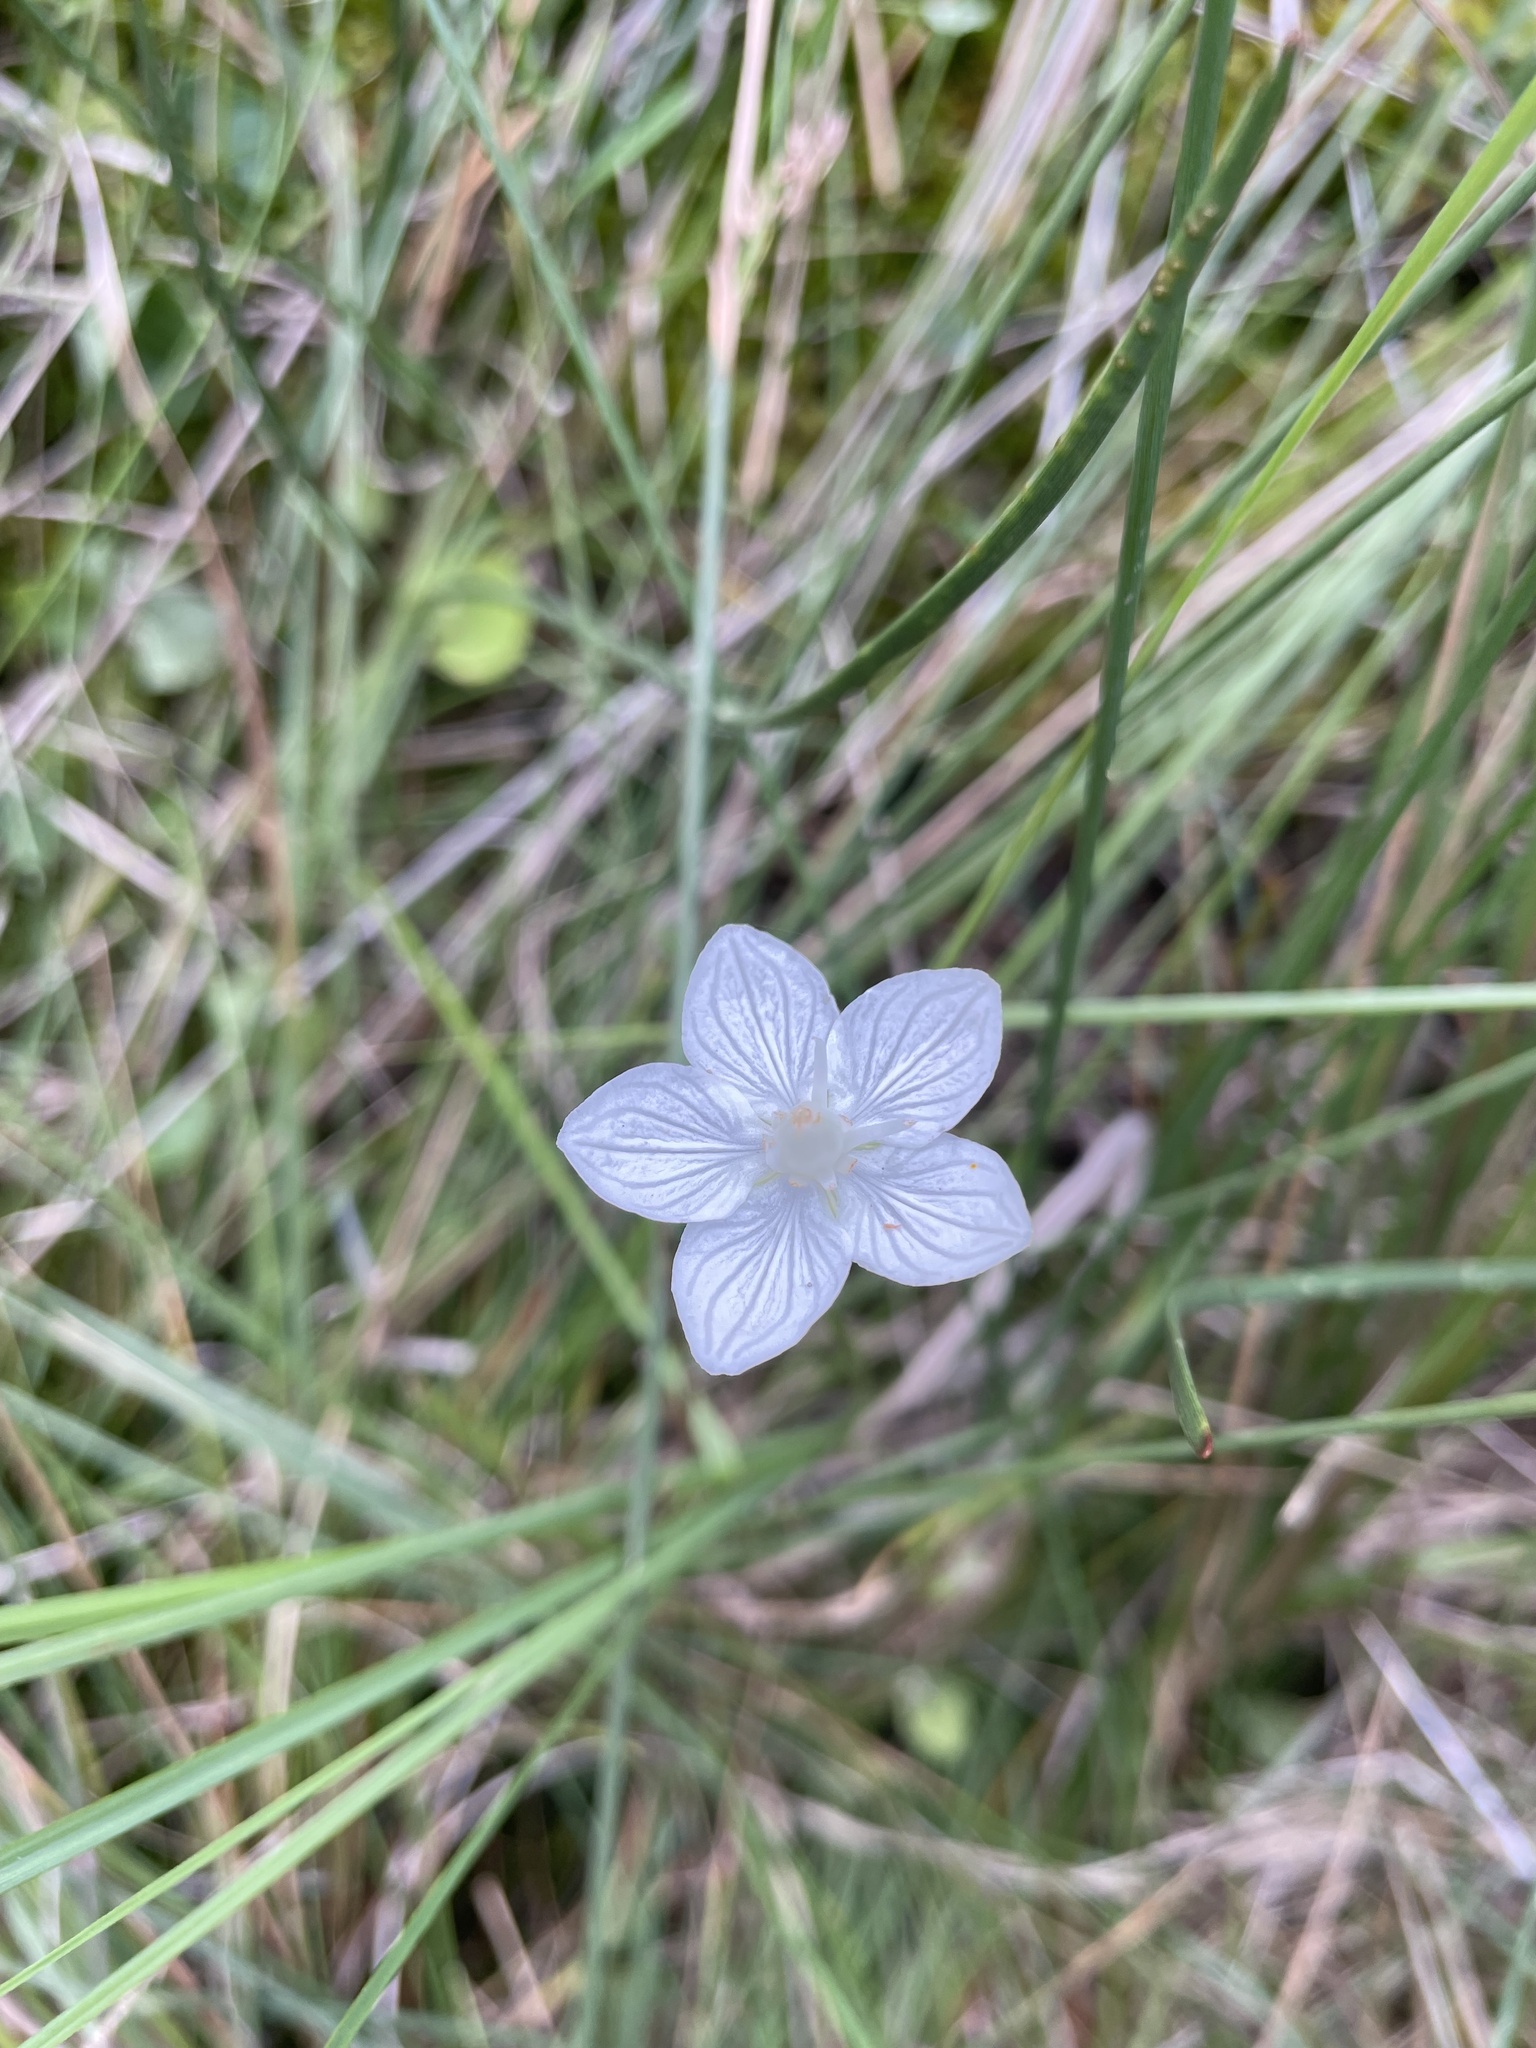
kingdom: Plantae
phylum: Tracheophyta
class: Magnoliopsida
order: Celastrales
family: Parnassiaceae
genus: Parnassia
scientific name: Parnassia palustris
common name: Grass-of-parnassus
